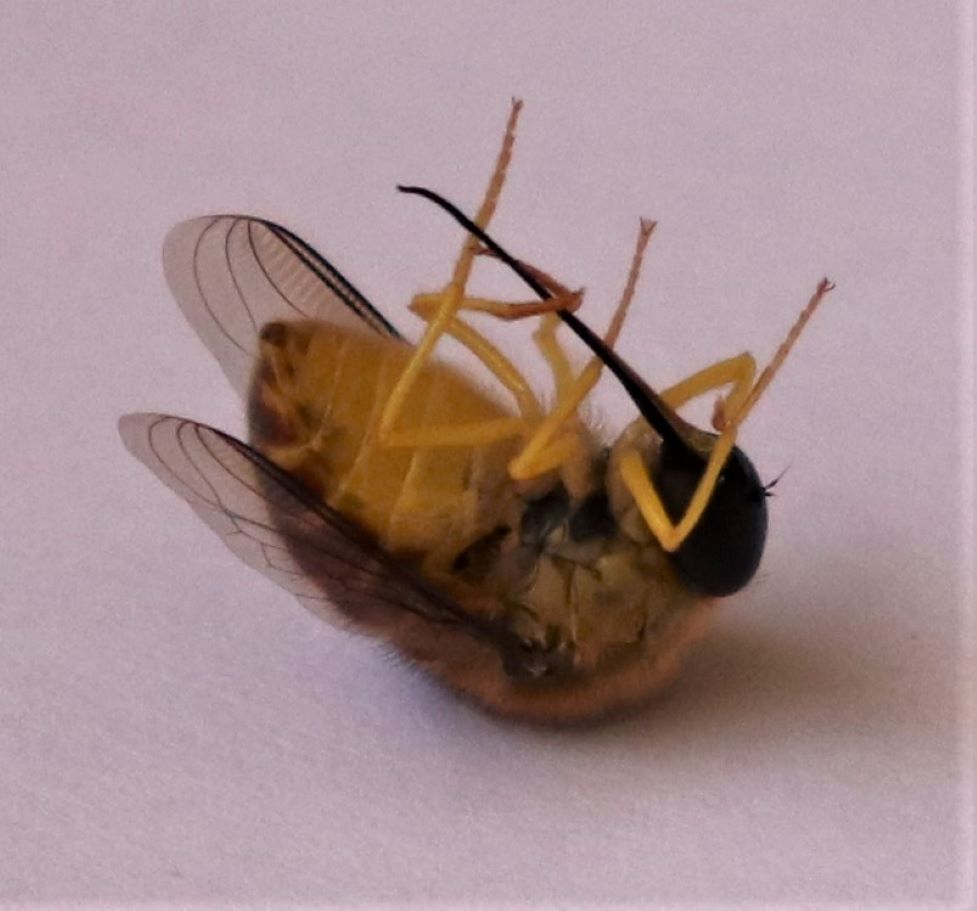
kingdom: Animalia
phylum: Arthropoda
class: Insecta
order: Diptera
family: Acroceridae
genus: Psilodera
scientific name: Psilodera valida
